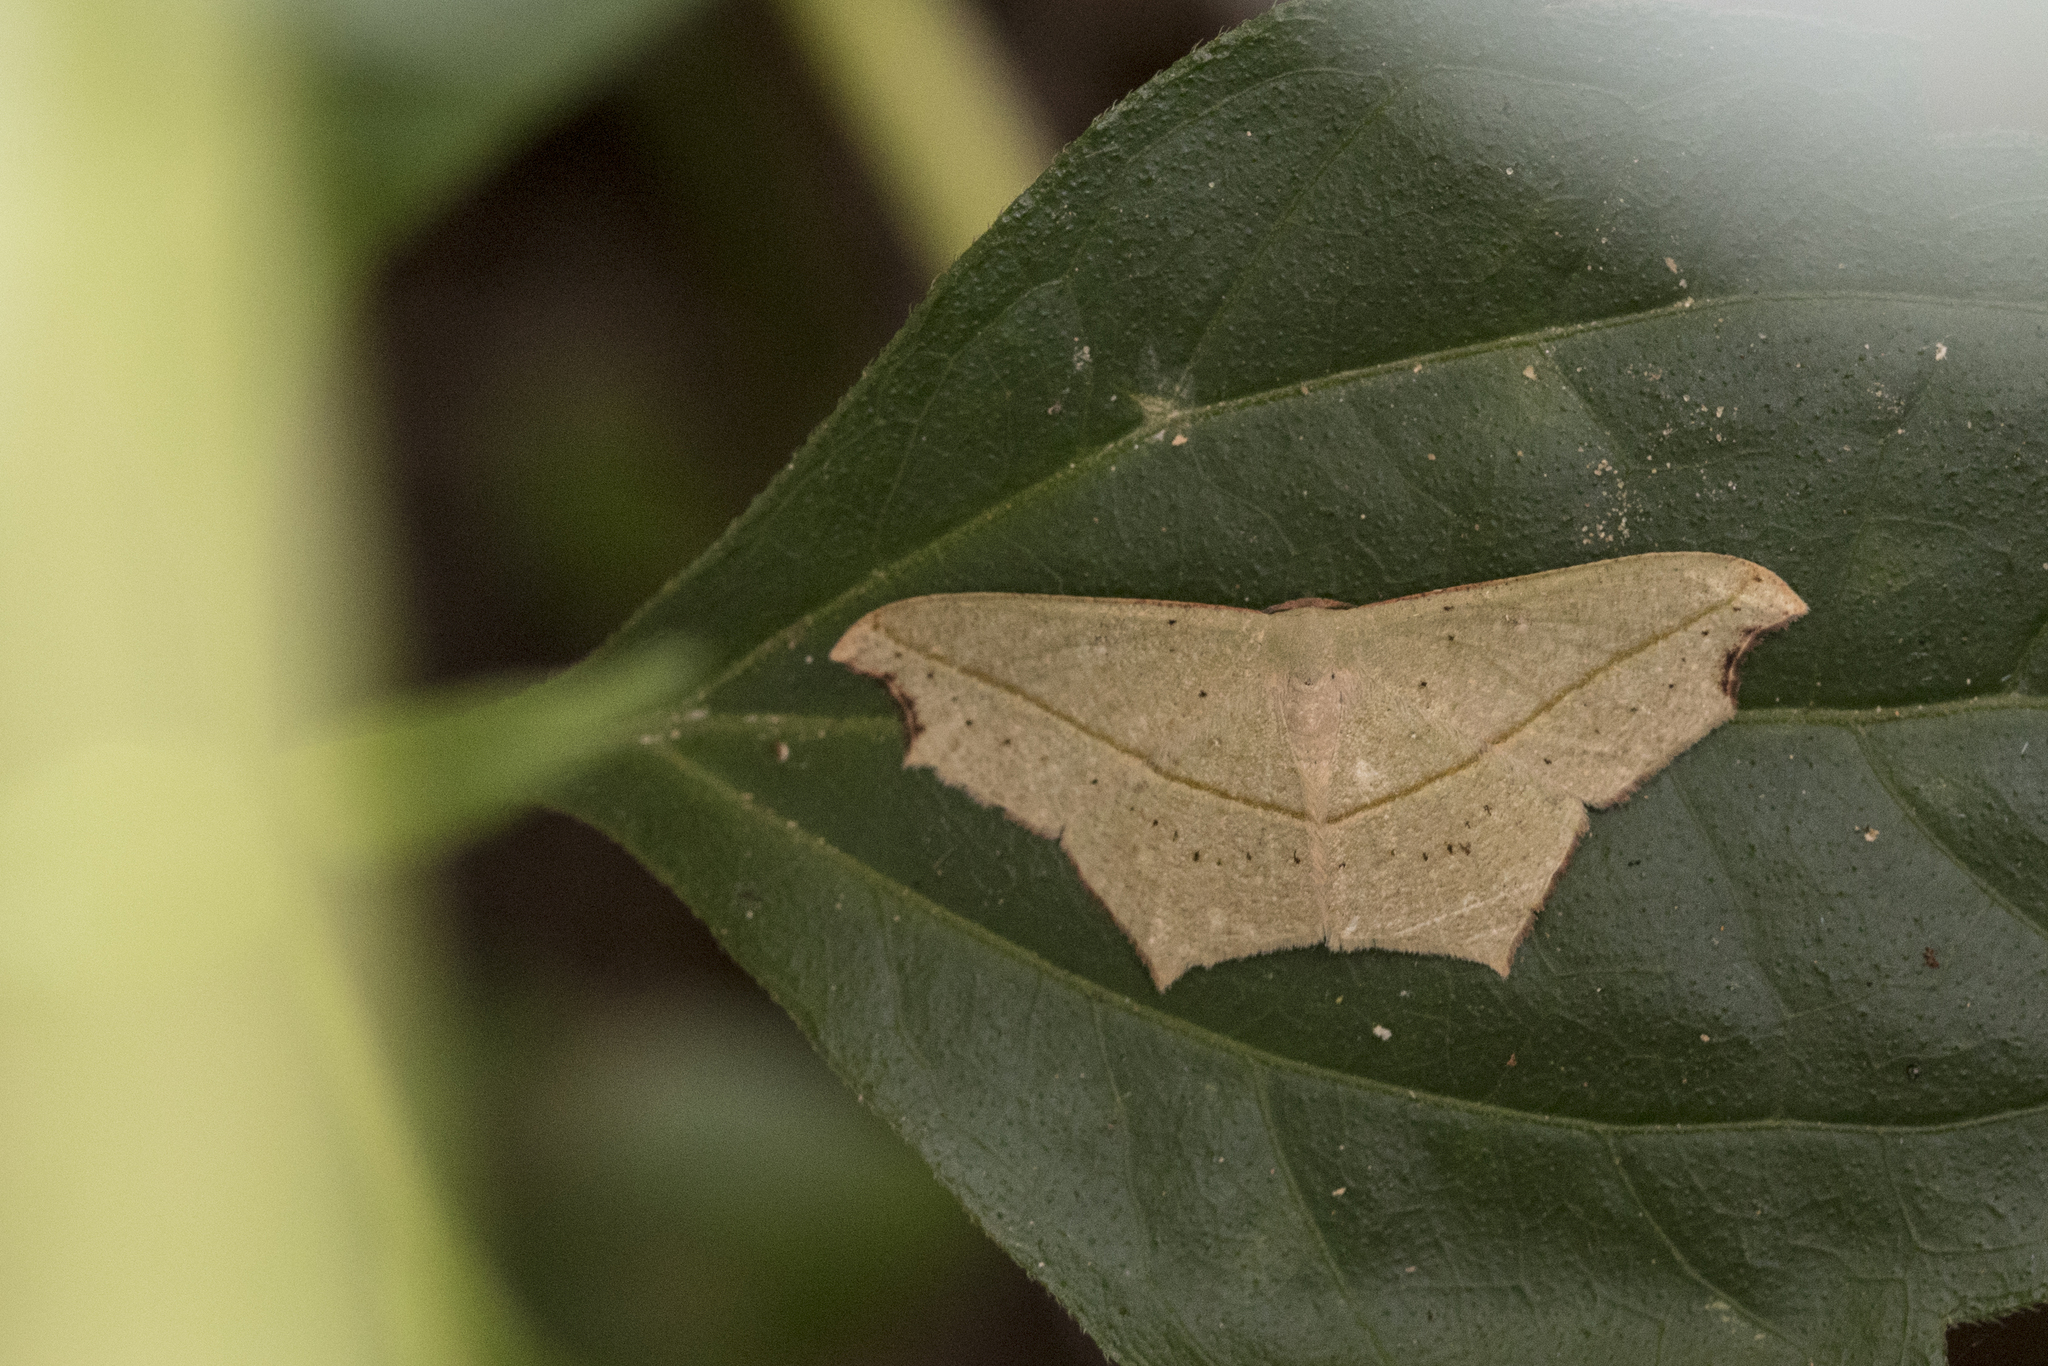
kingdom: Animalia
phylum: Arthropoda
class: Insecta
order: Lepidoptera
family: Geometridae
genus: Traminda
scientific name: Traminda aventiaria
